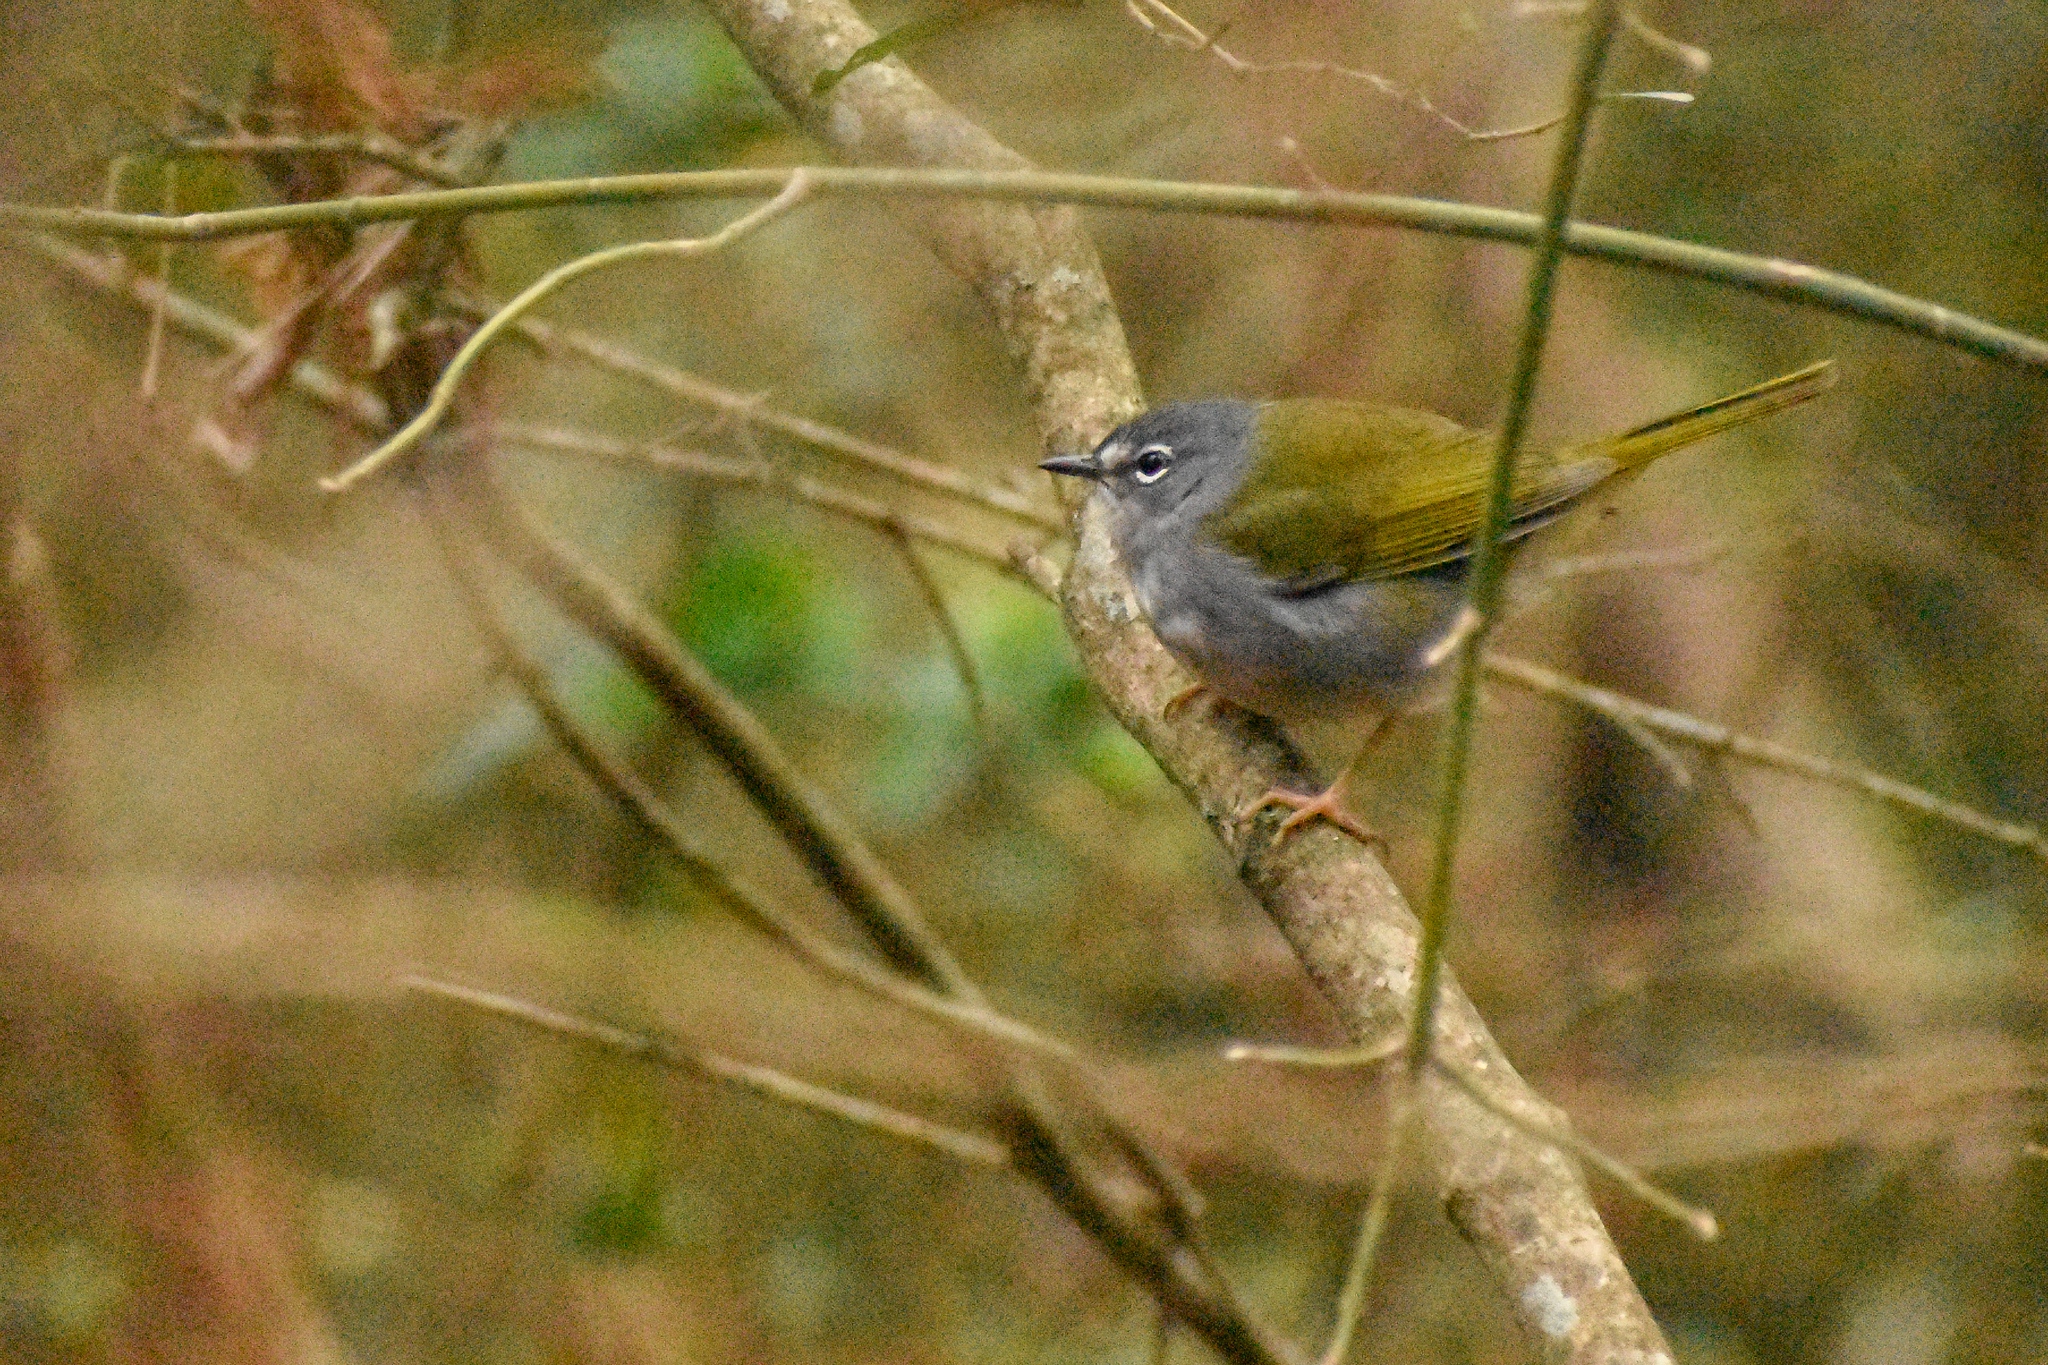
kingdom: Animalia
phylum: Chordata
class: Aves
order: Passeriformes
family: Parulidae
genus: Myiothlypis
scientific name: Myiothlypis leucoblephara
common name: White-rimmed warbler
